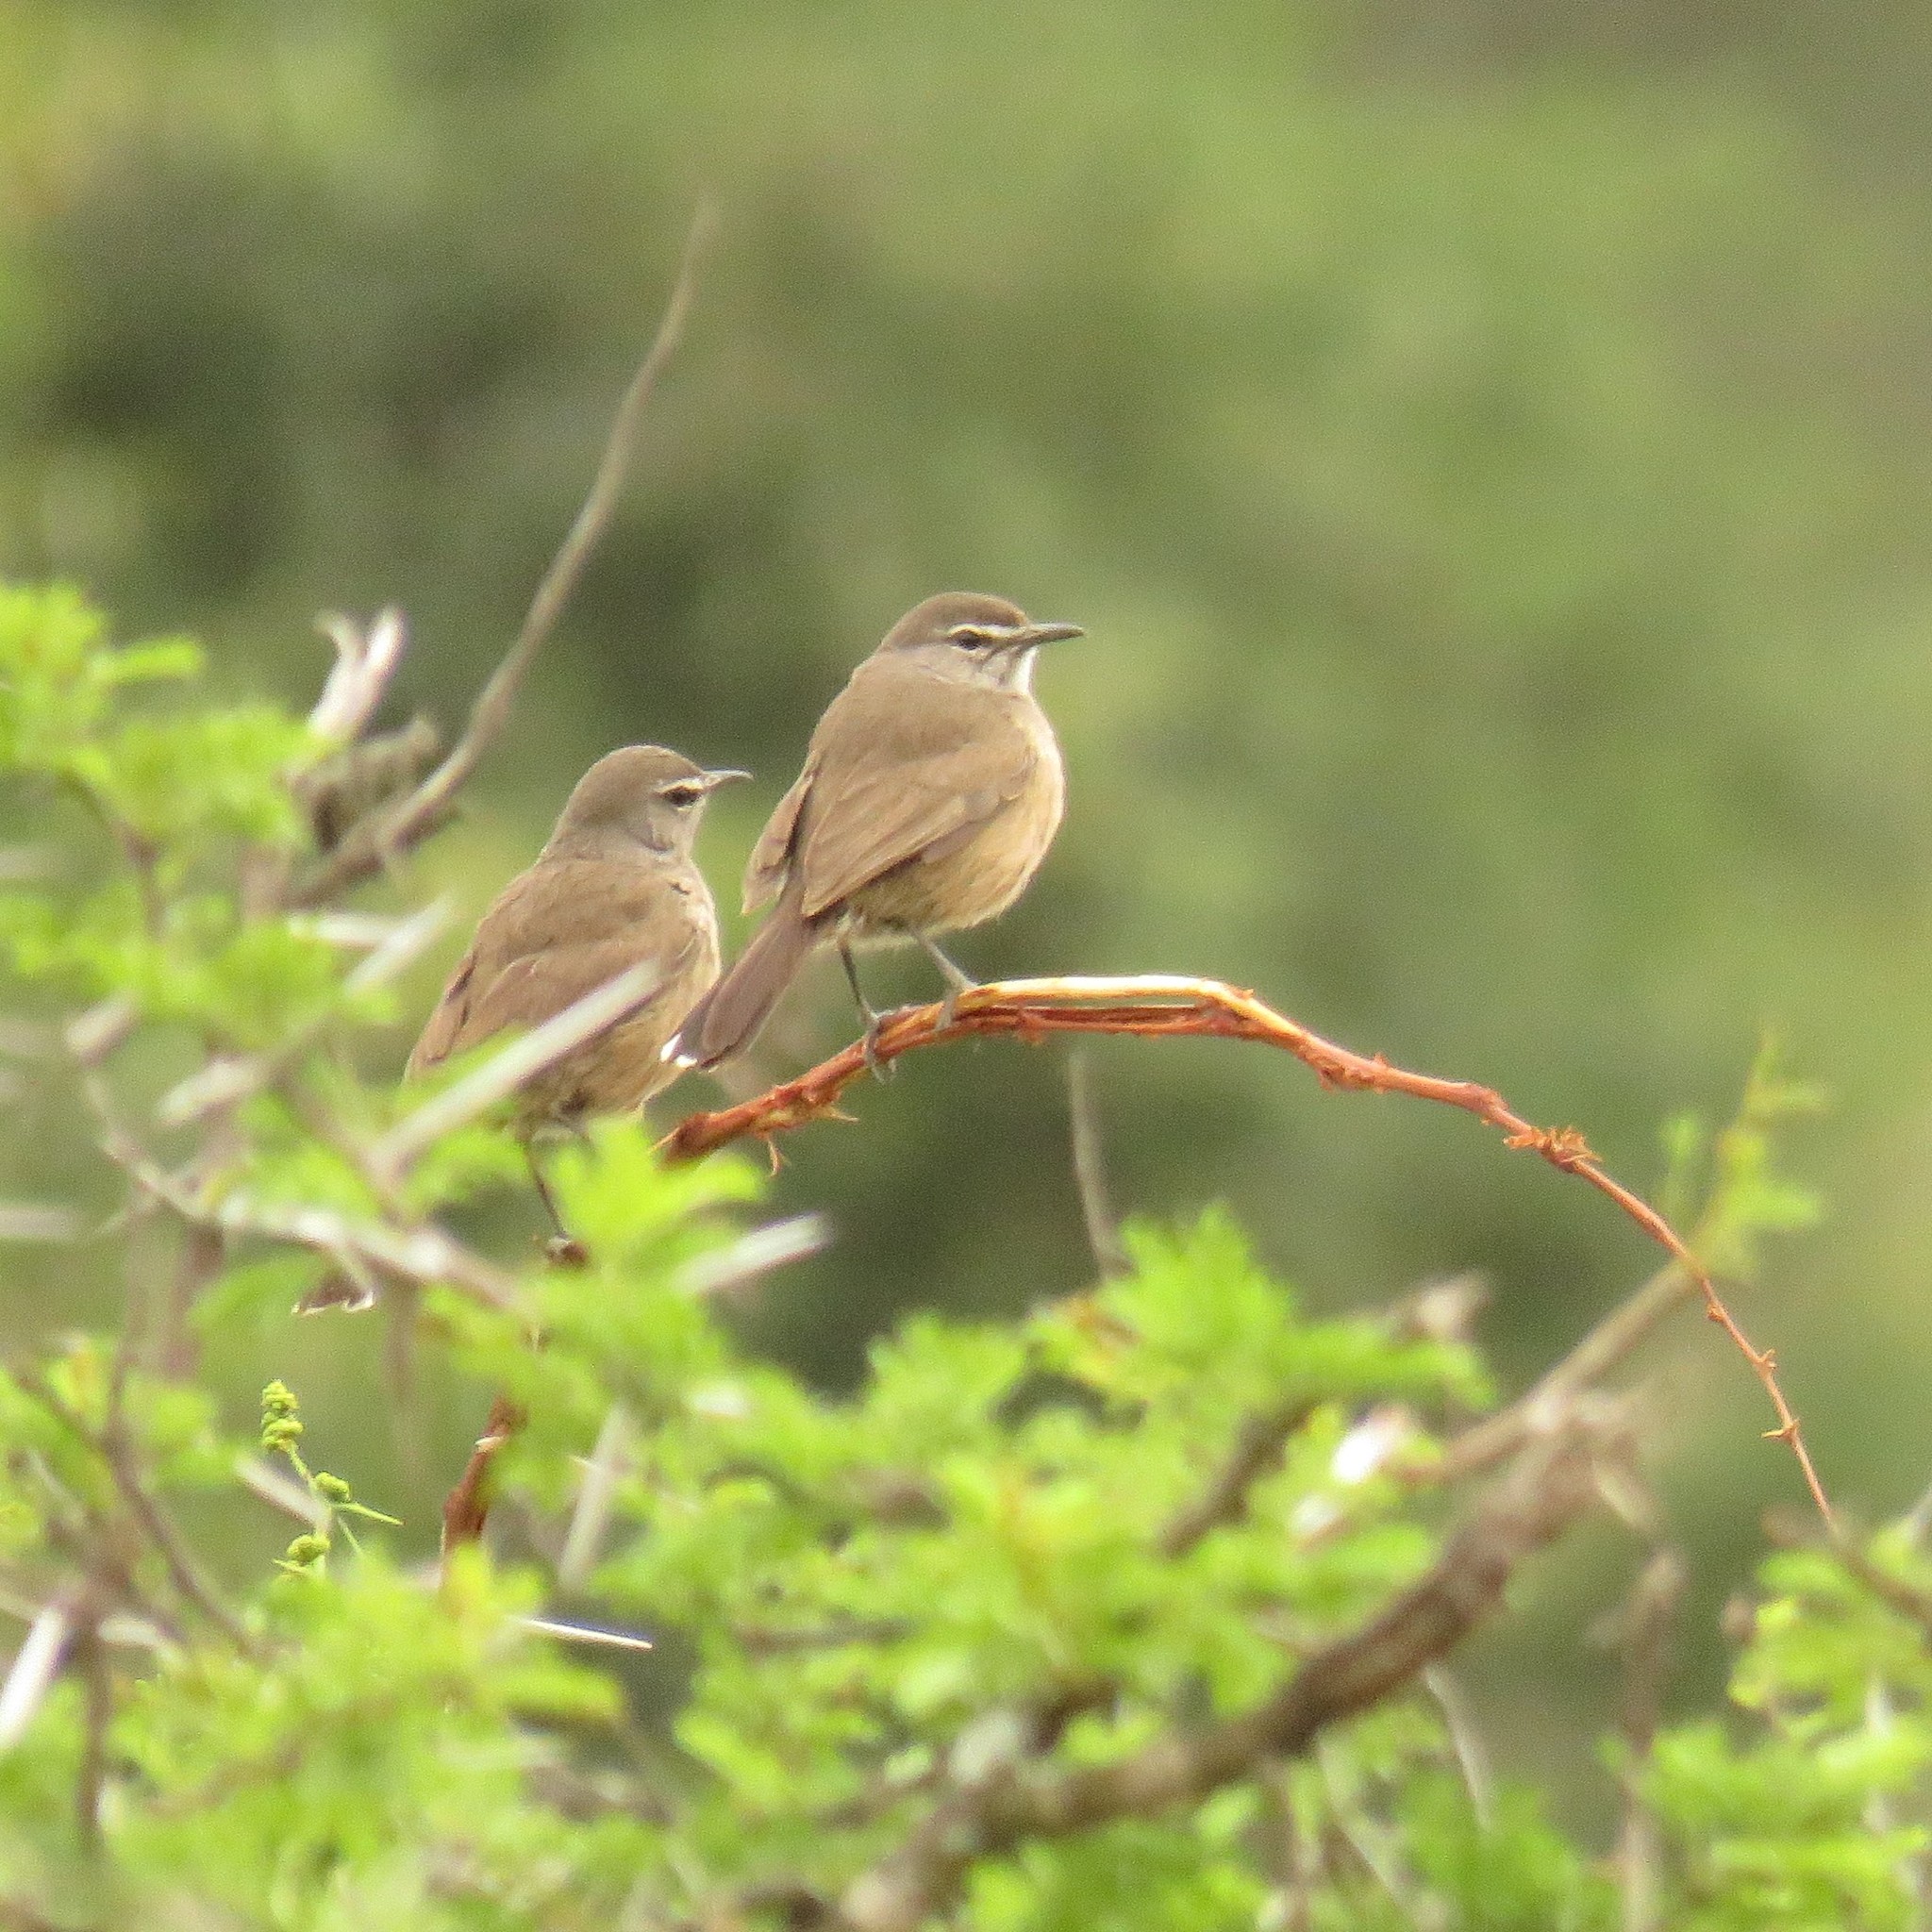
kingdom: Animalia
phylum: Chordata
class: Aves
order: Passeriformes
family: Muscicapidae
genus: Erythropygia
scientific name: Erythropygia coryphoeus
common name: Karoo scrub robin
